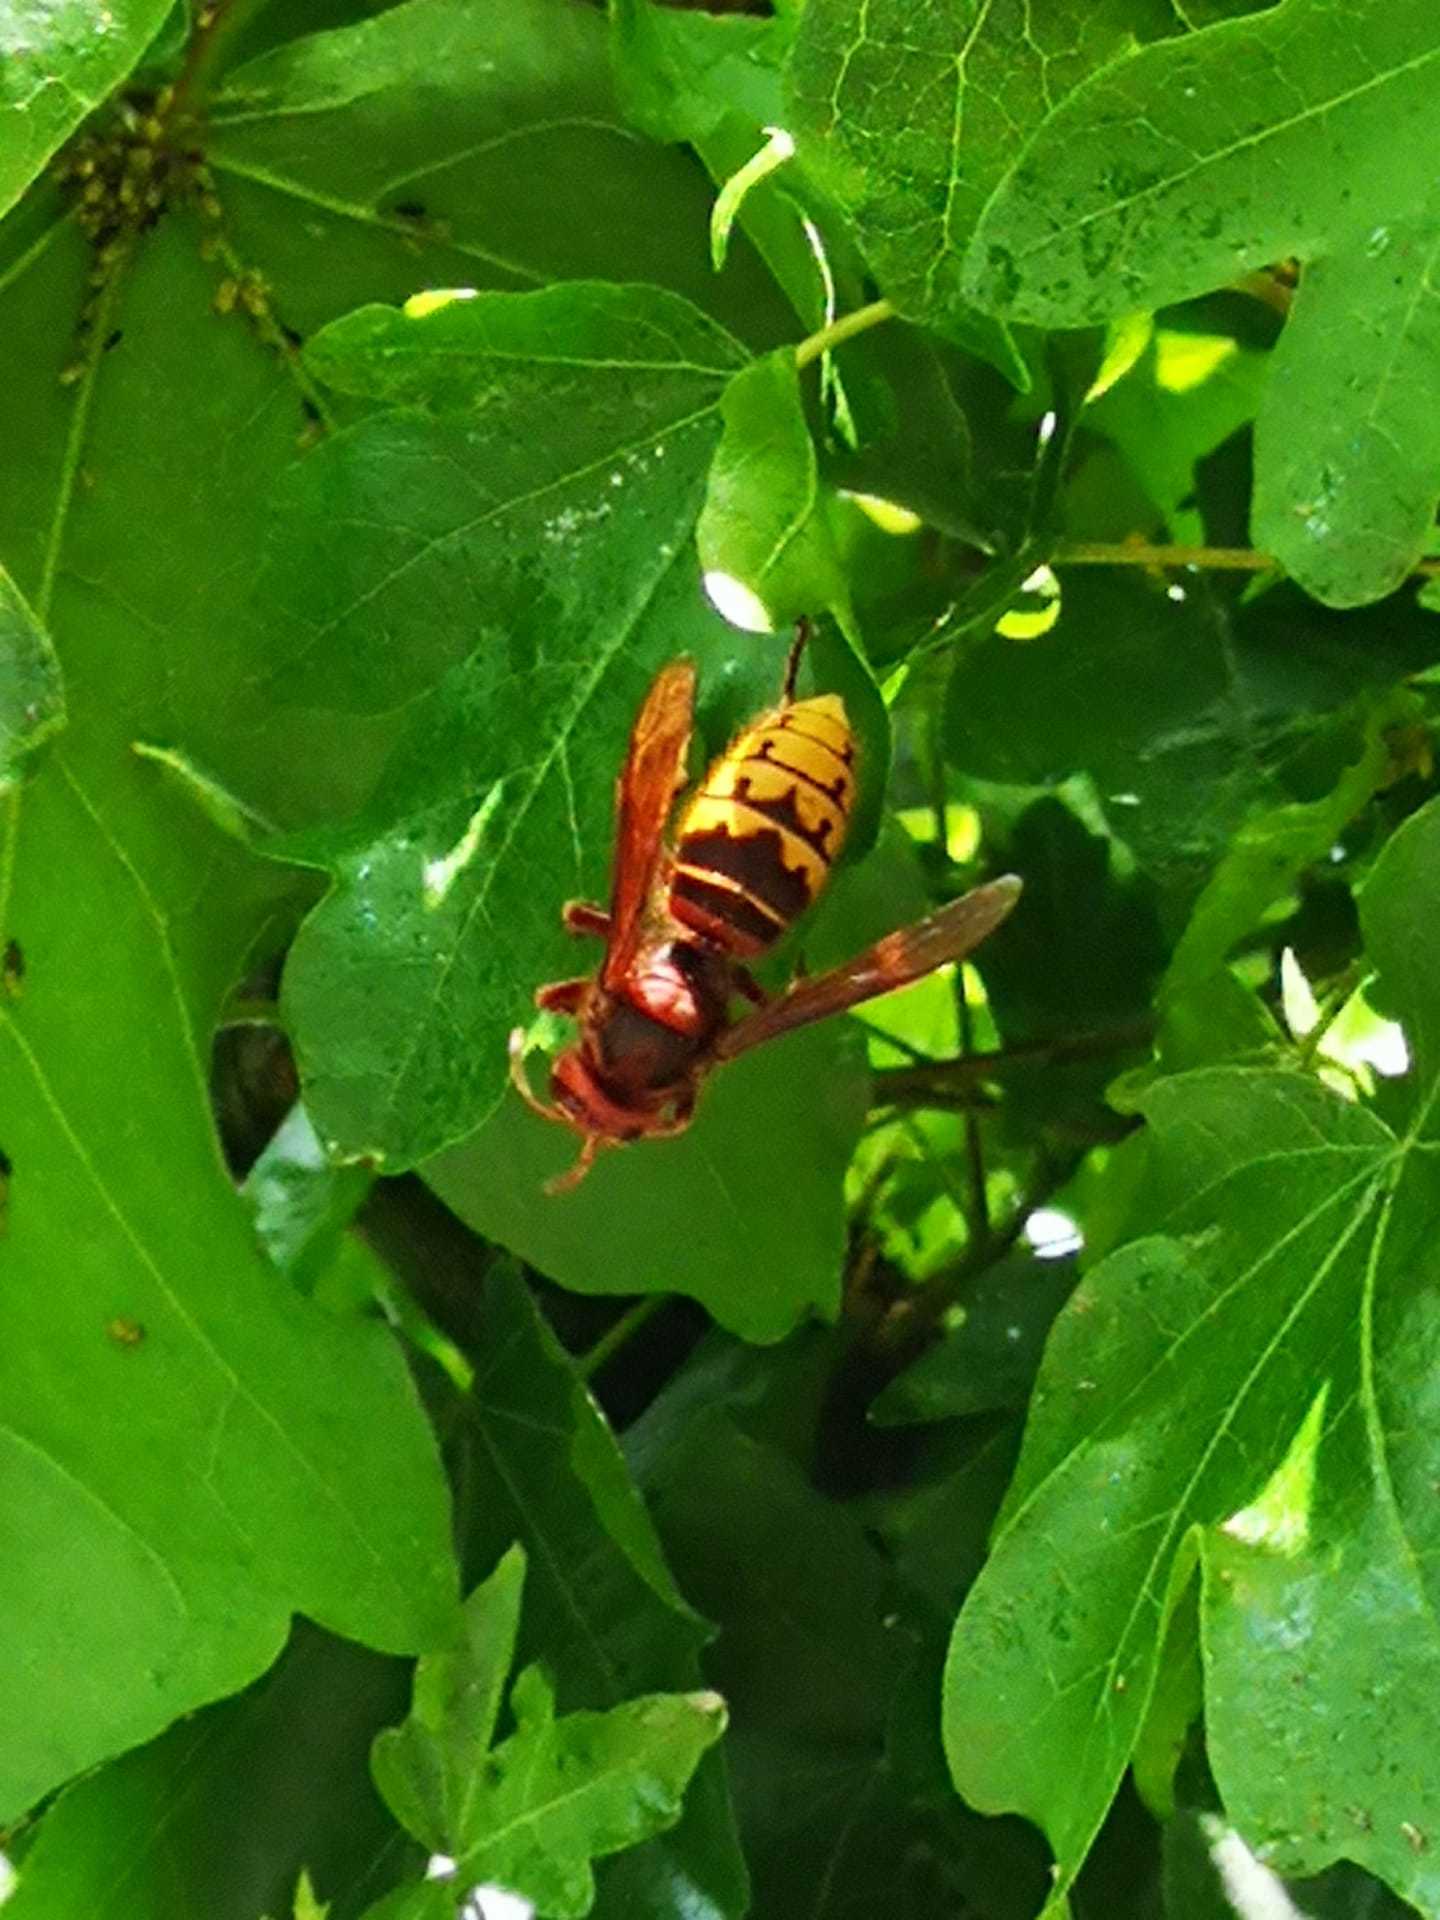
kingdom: Animalia
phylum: Arthropoda
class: Insecta
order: Hymenoptera
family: Vespidae
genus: Vespa
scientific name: Vespa crabro
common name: Hornet
